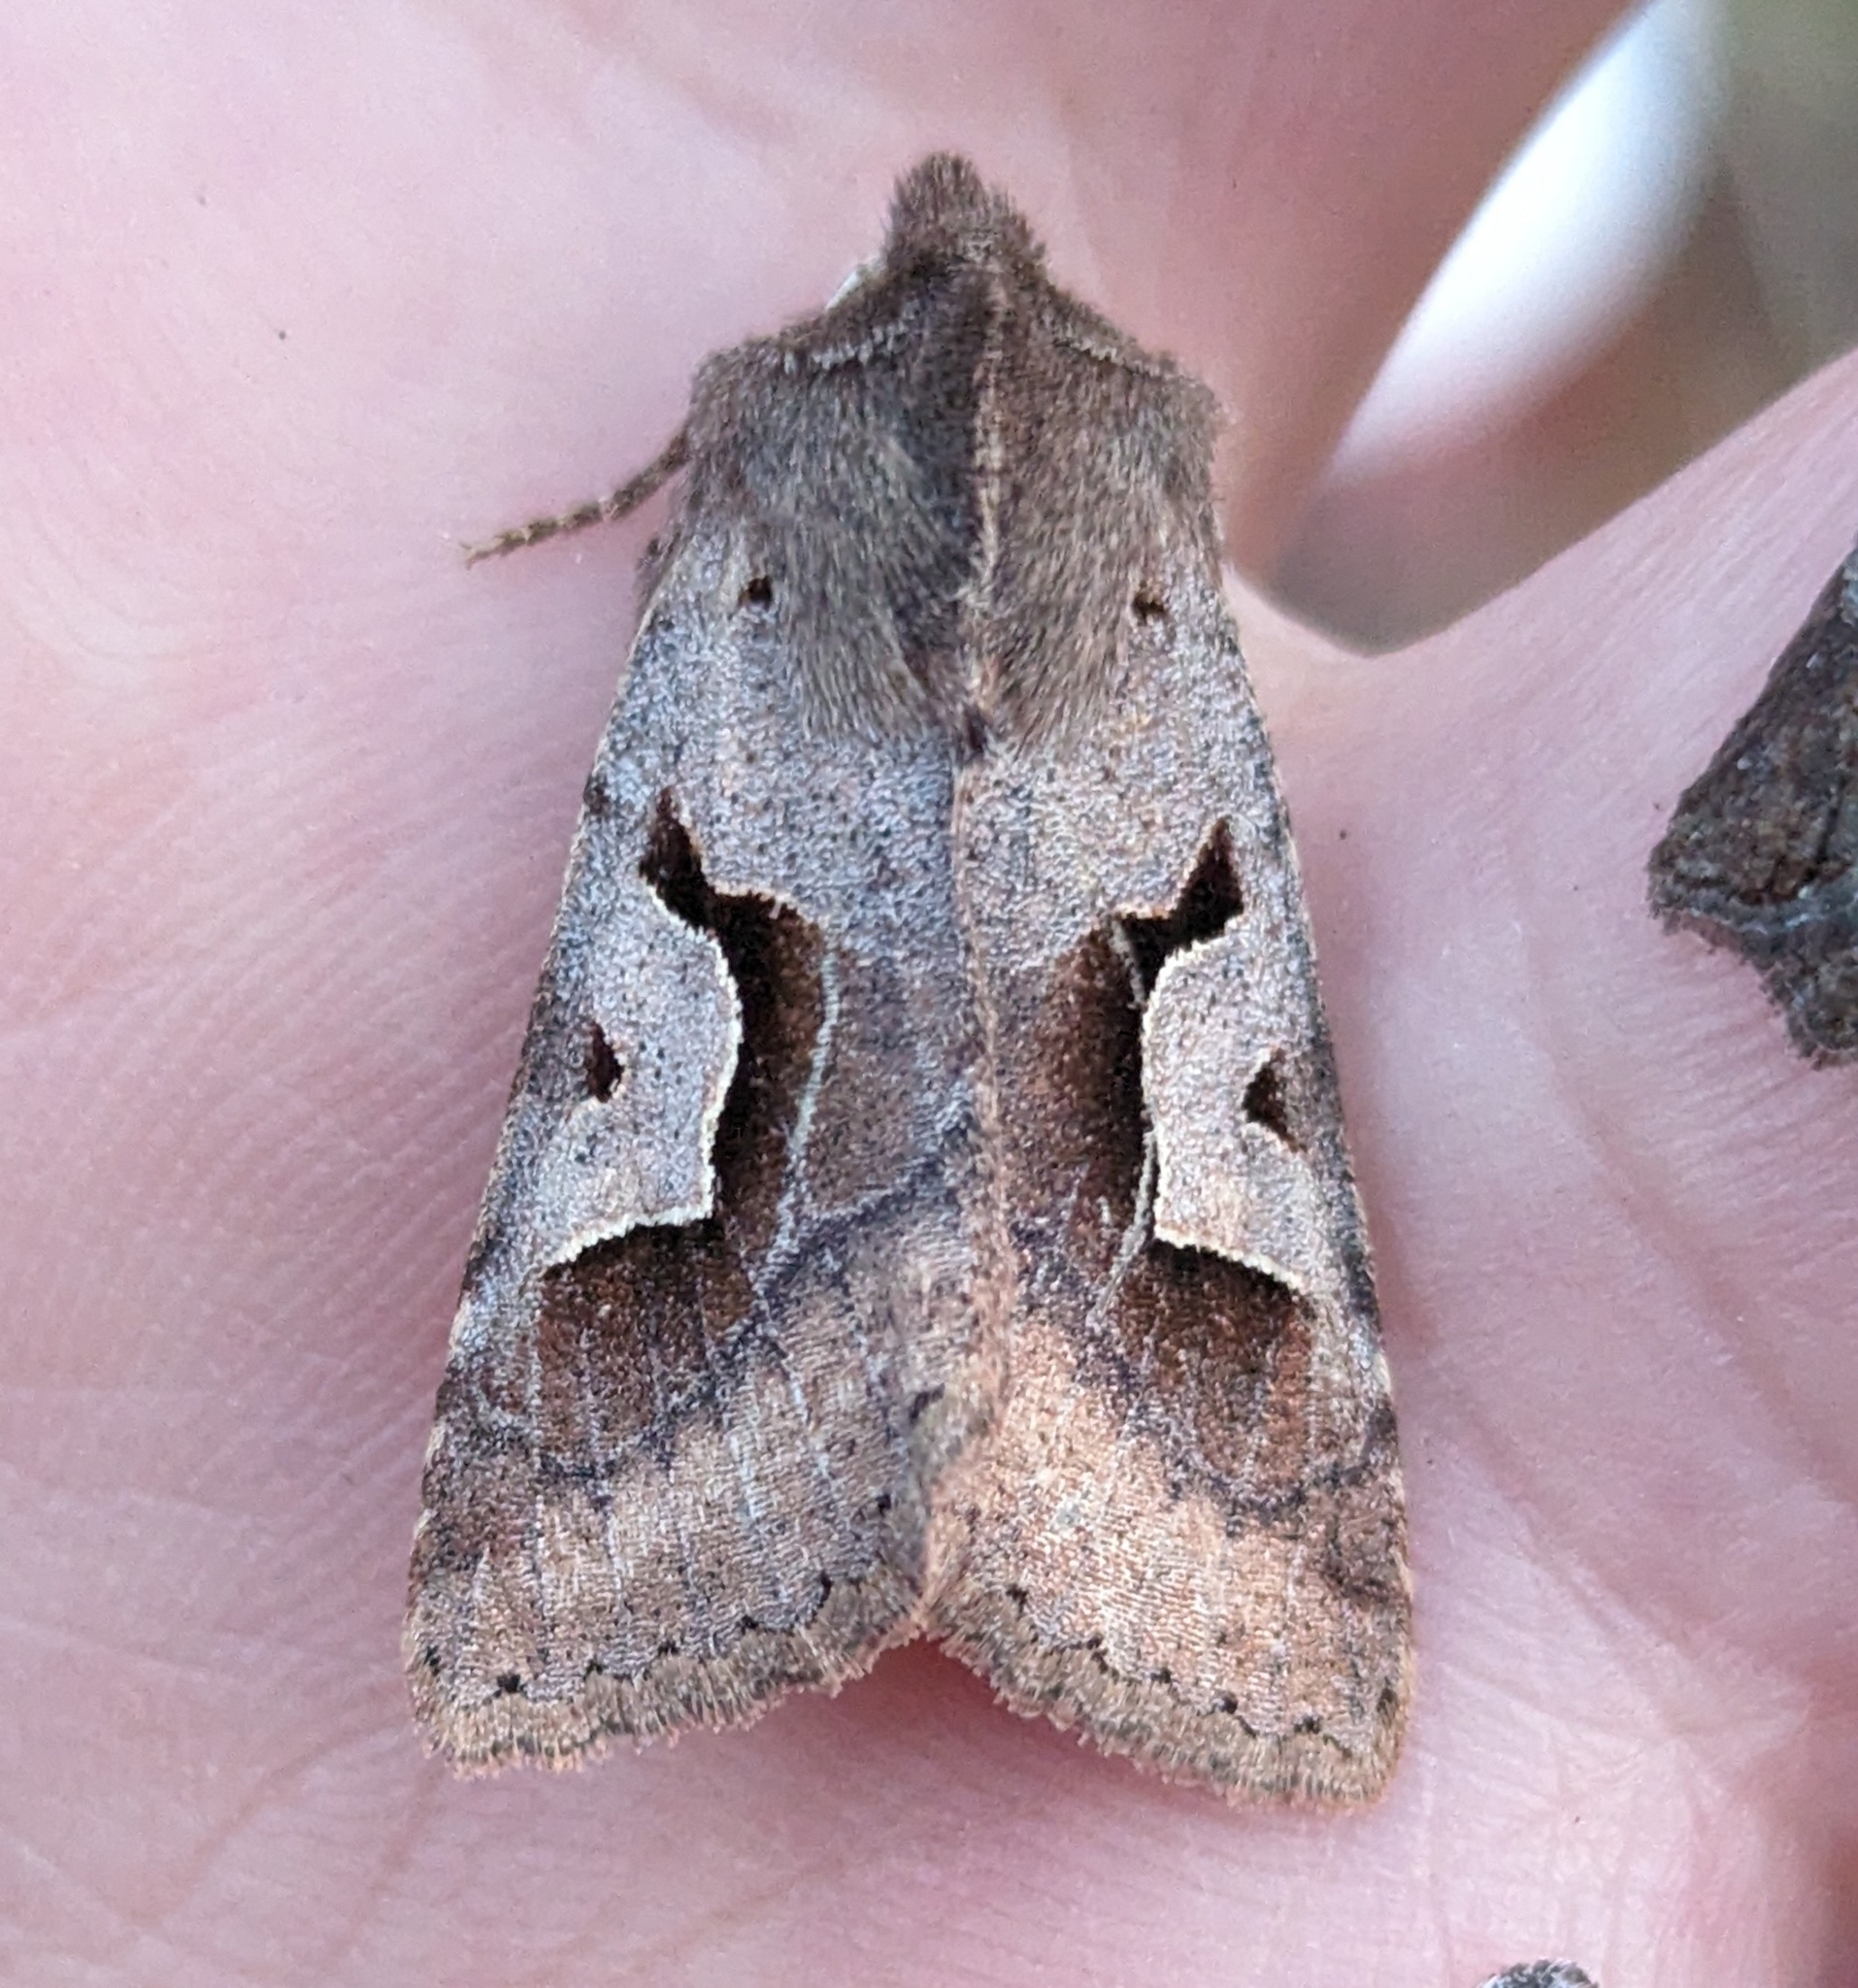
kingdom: Animalia
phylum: Arthropoda
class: Insecta
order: Lepidoptera
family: Noctuidae
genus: Acerra
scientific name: Acerra normalis
